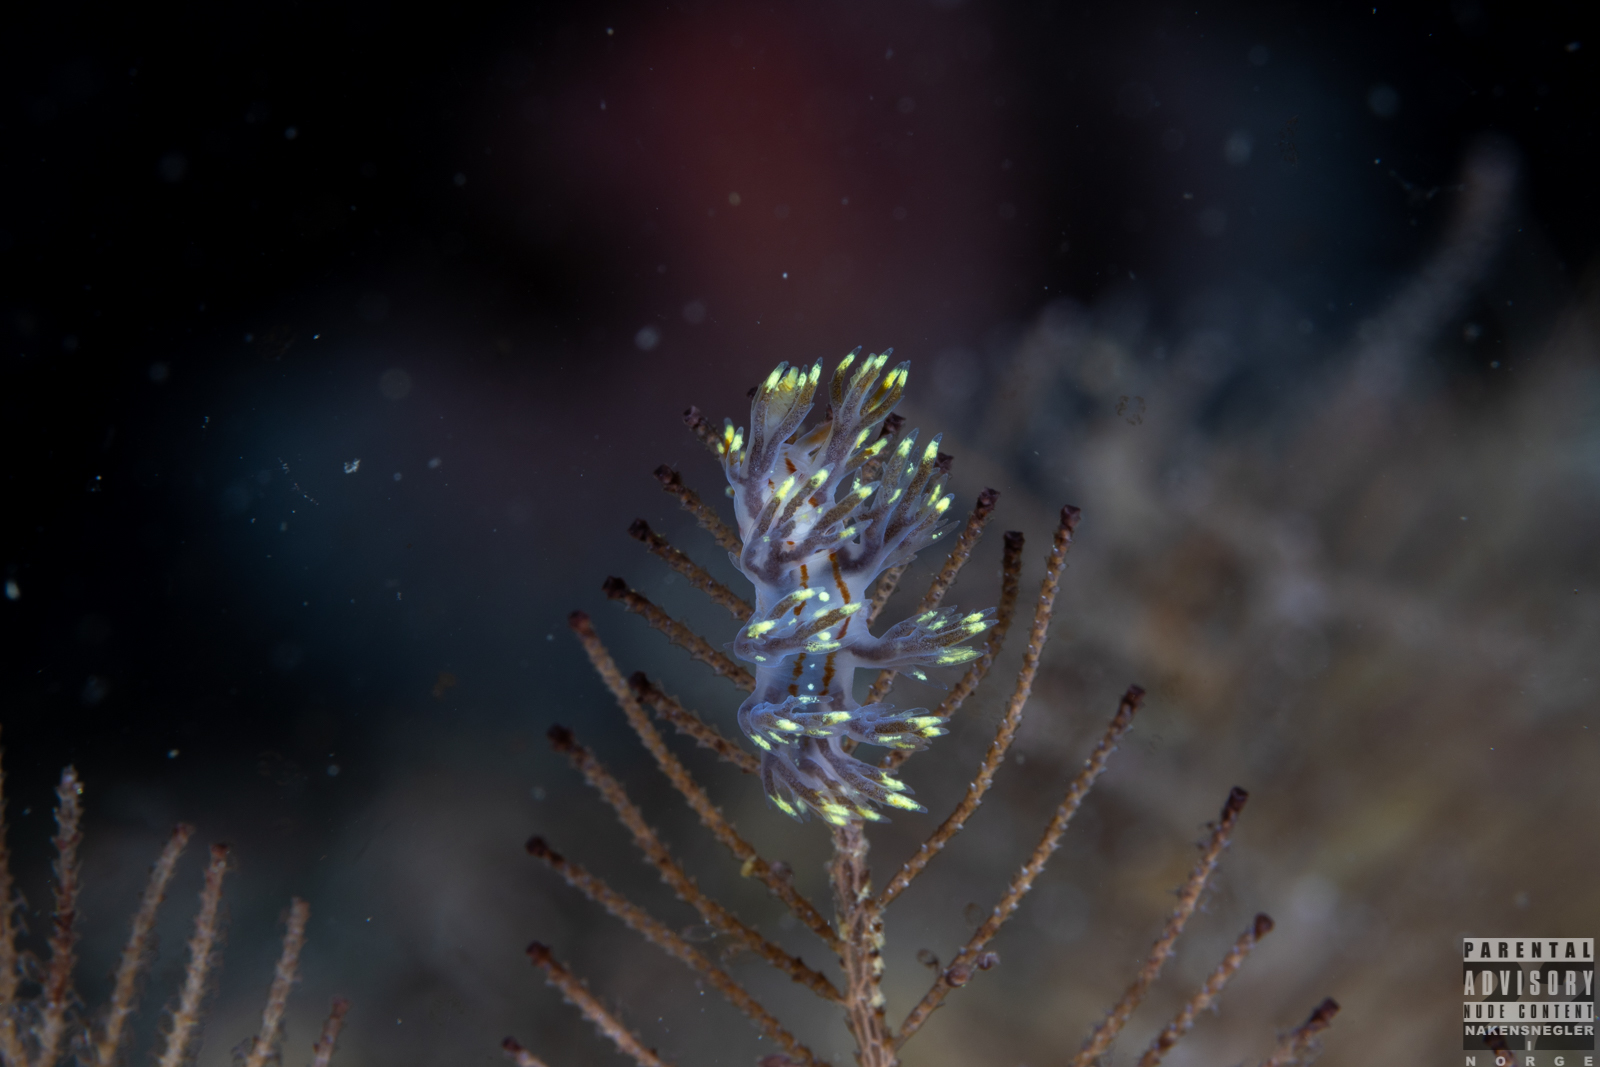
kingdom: Animalia
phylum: Mollusca
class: Gastropoda
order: Nudibranchia
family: Dendronotidae
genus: Dendronotus
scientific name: Dendronotus yrjargul
